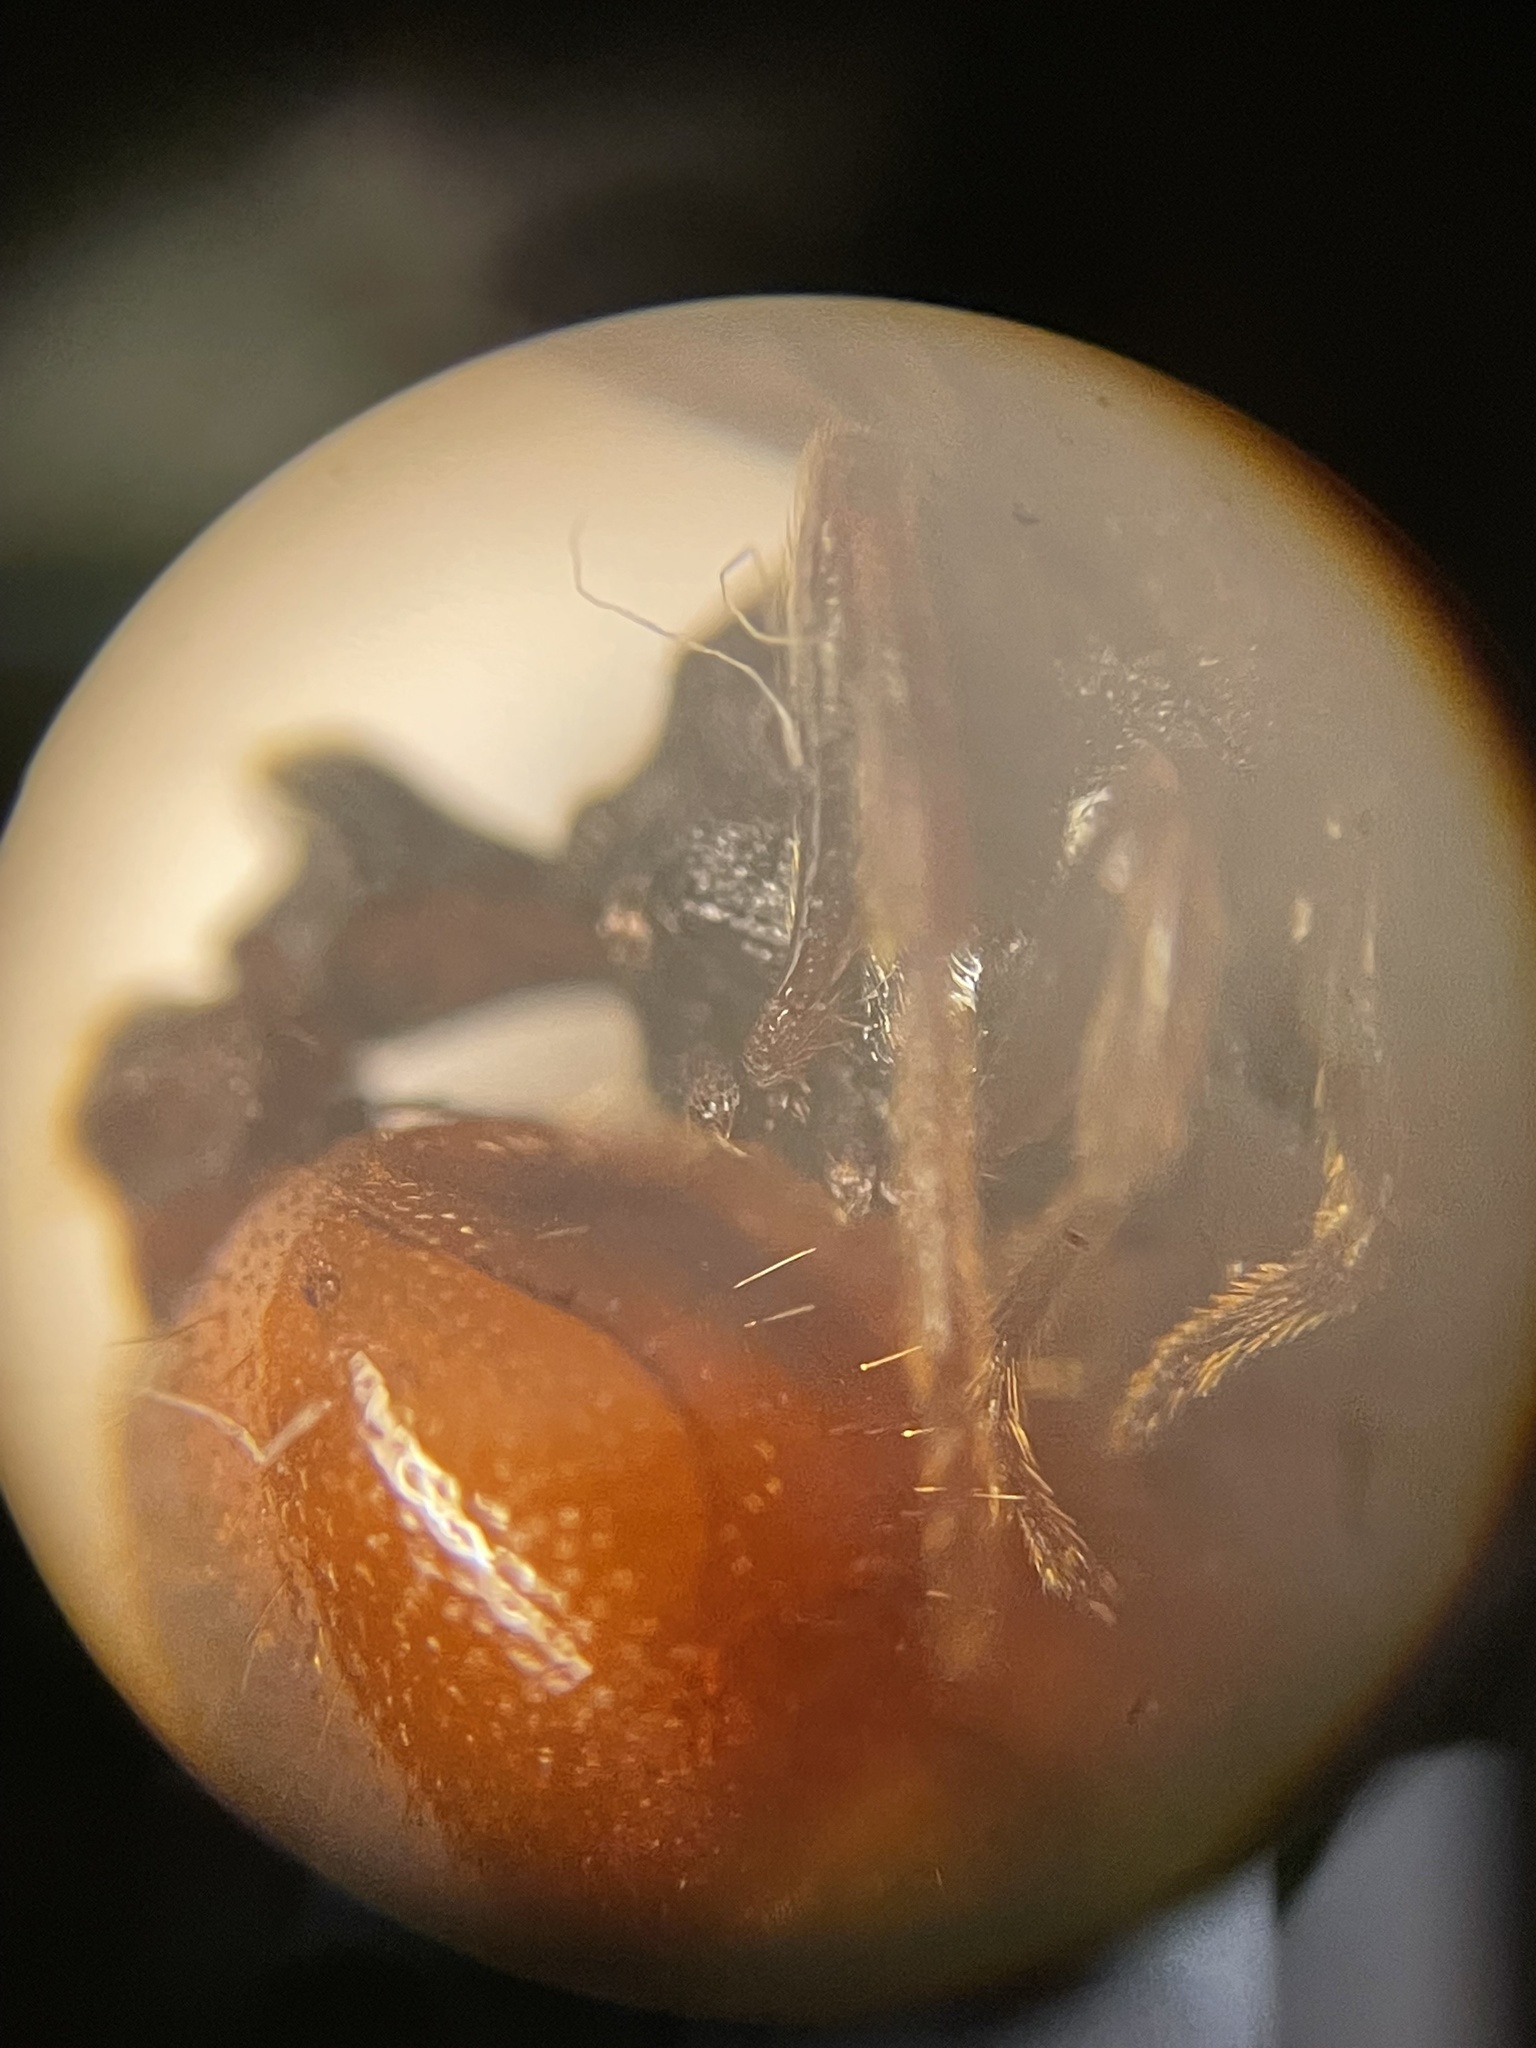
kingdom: Animalia
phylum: Arthropoda
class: Insecta
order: Hymenoptera
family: Formicidae
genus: Carebara
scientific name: Carebara langi
